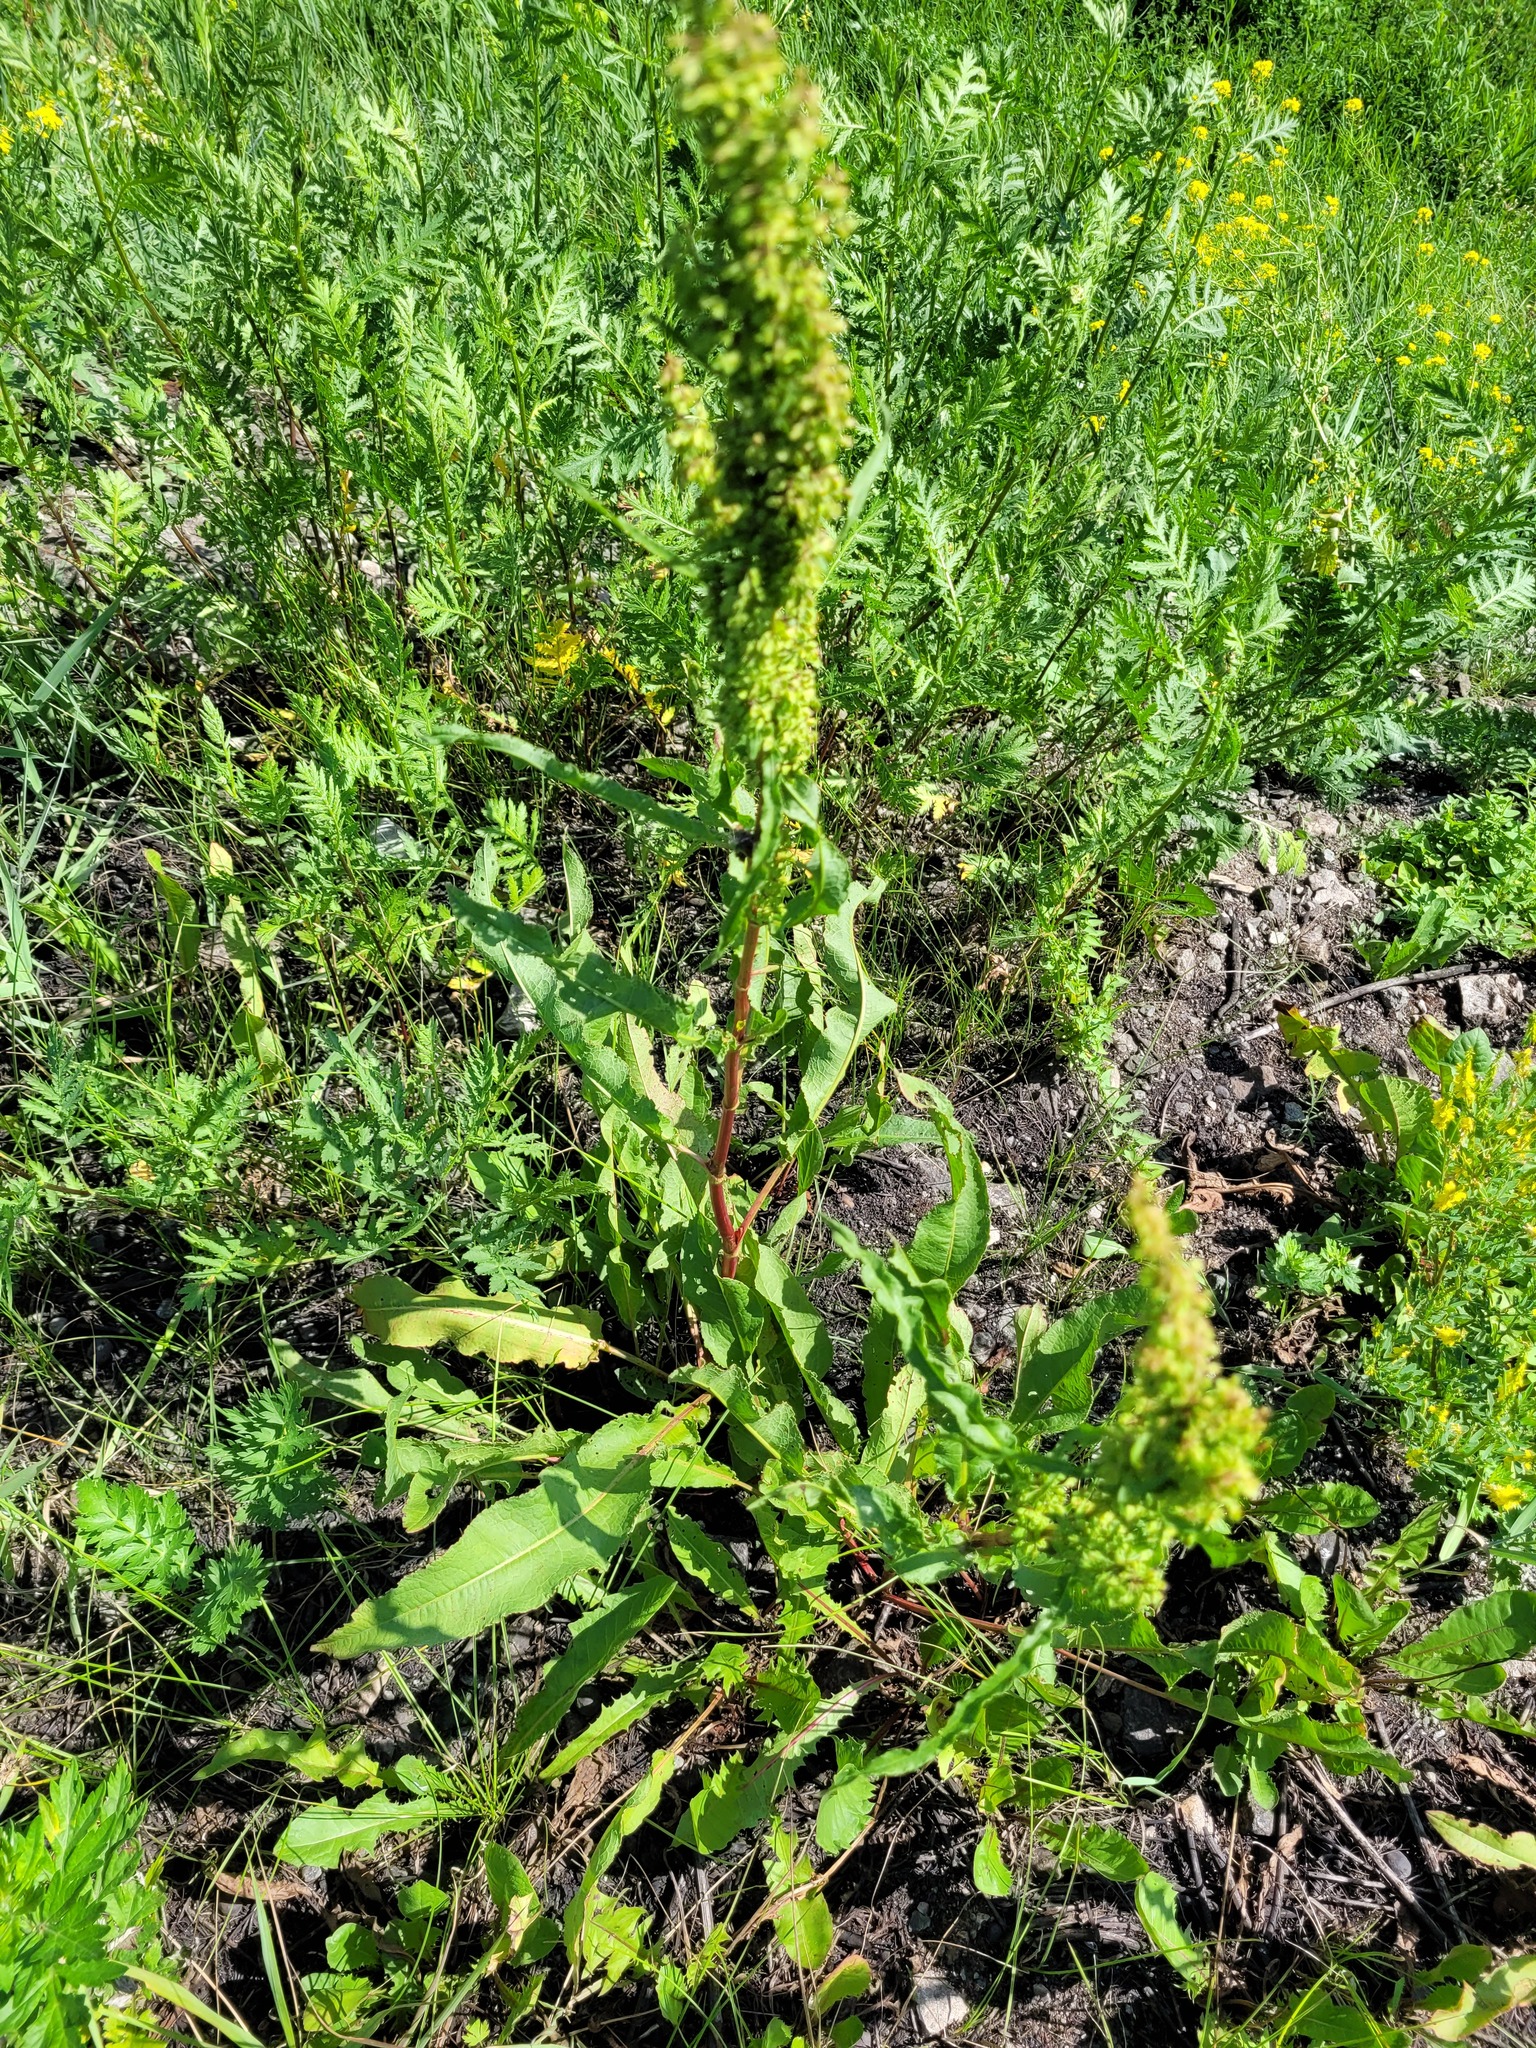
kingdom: Plantae
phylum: Tracheophyta
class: Magnoliopsida
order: Caryophyllales
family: Polygonaceae
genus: Rumex
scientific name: Rumex crispus
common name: Curled dock
